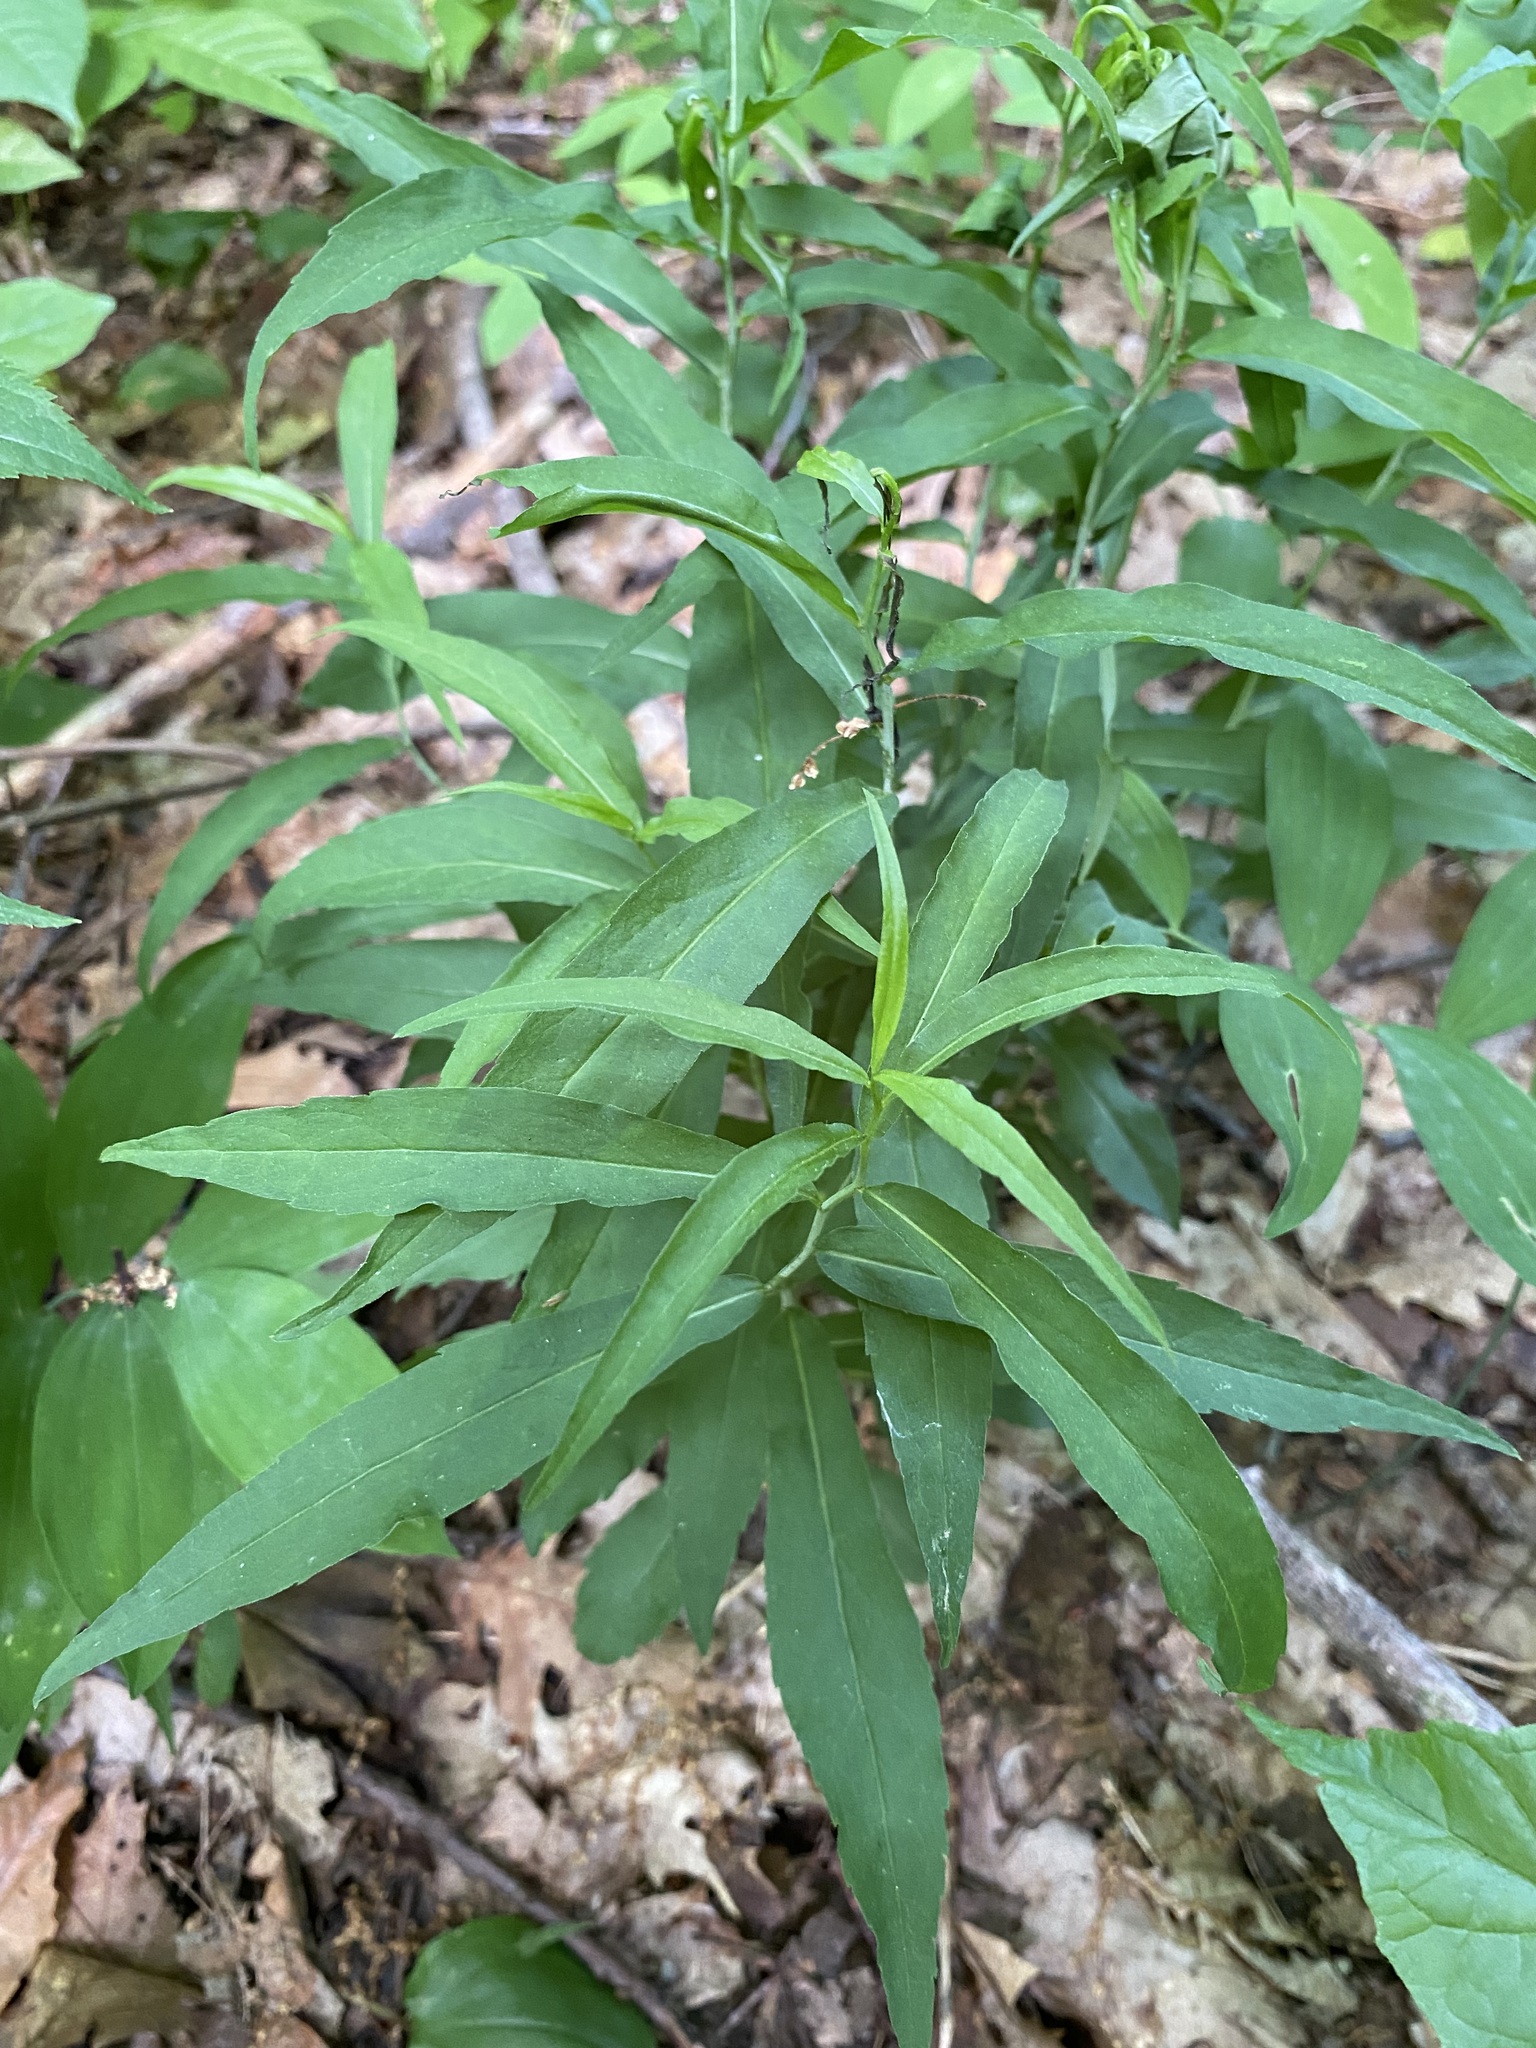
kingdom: Plantae
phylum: Tracheophyta
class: Magnoliopsida
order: Asterales
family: Asteraceae
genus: Solidago
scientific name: Solidago caesia
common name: Woodland goldenrod
